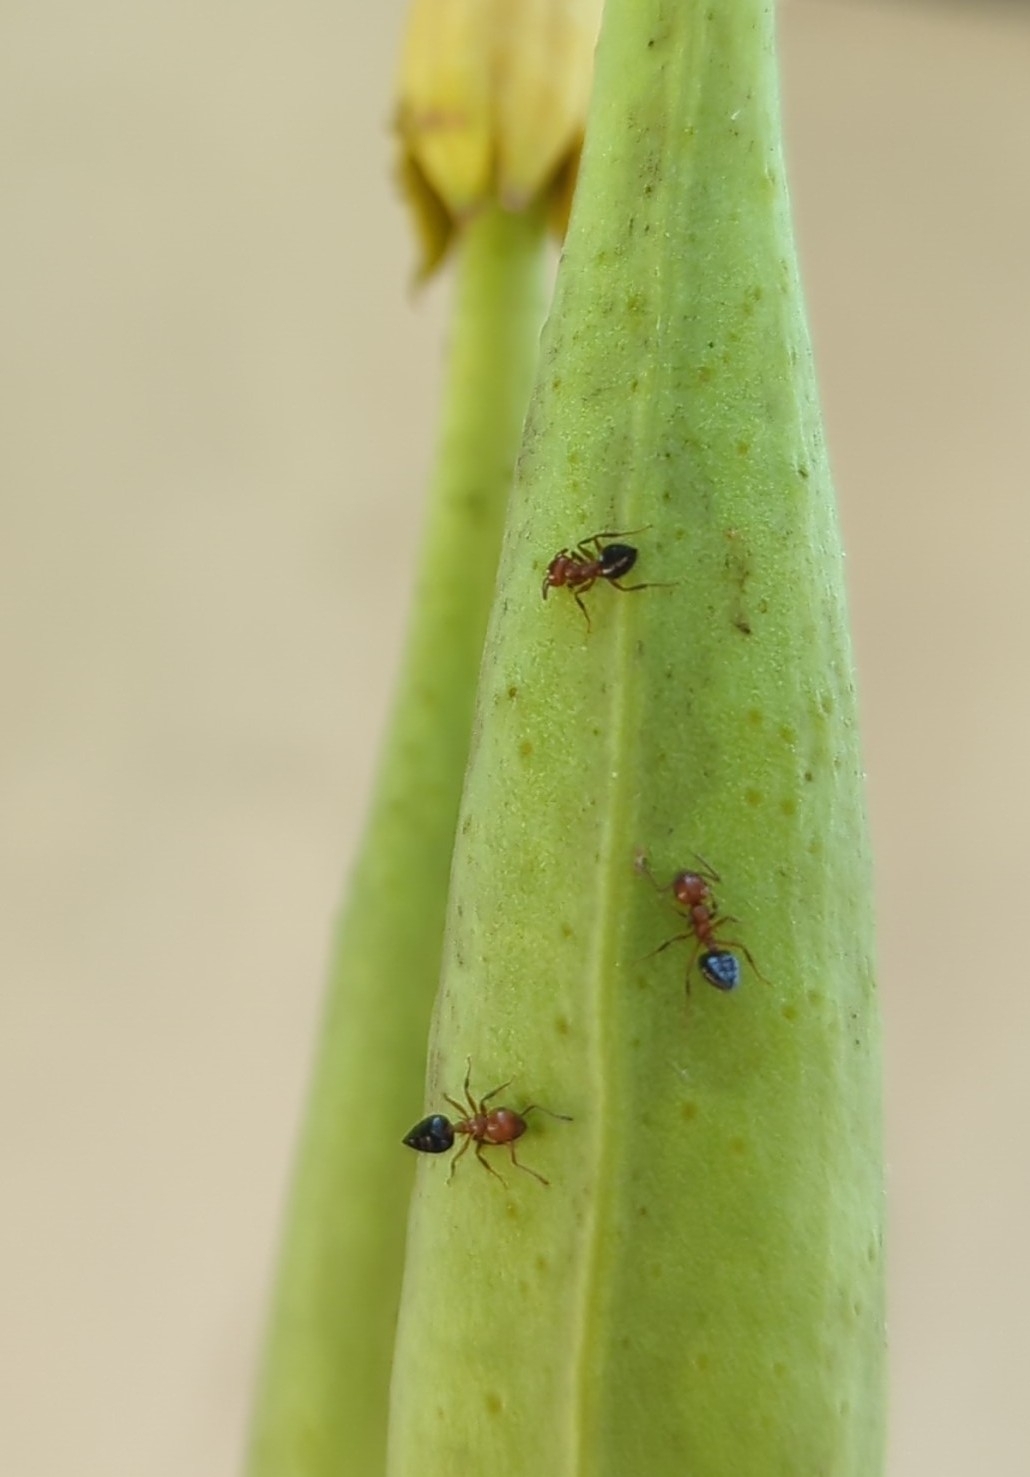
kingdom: Animalia
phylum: Arthropoda
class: Insecta
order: Hymenoptera
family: Formicidae
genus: Crematogaster
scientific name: Crematogaster laeviuscula
